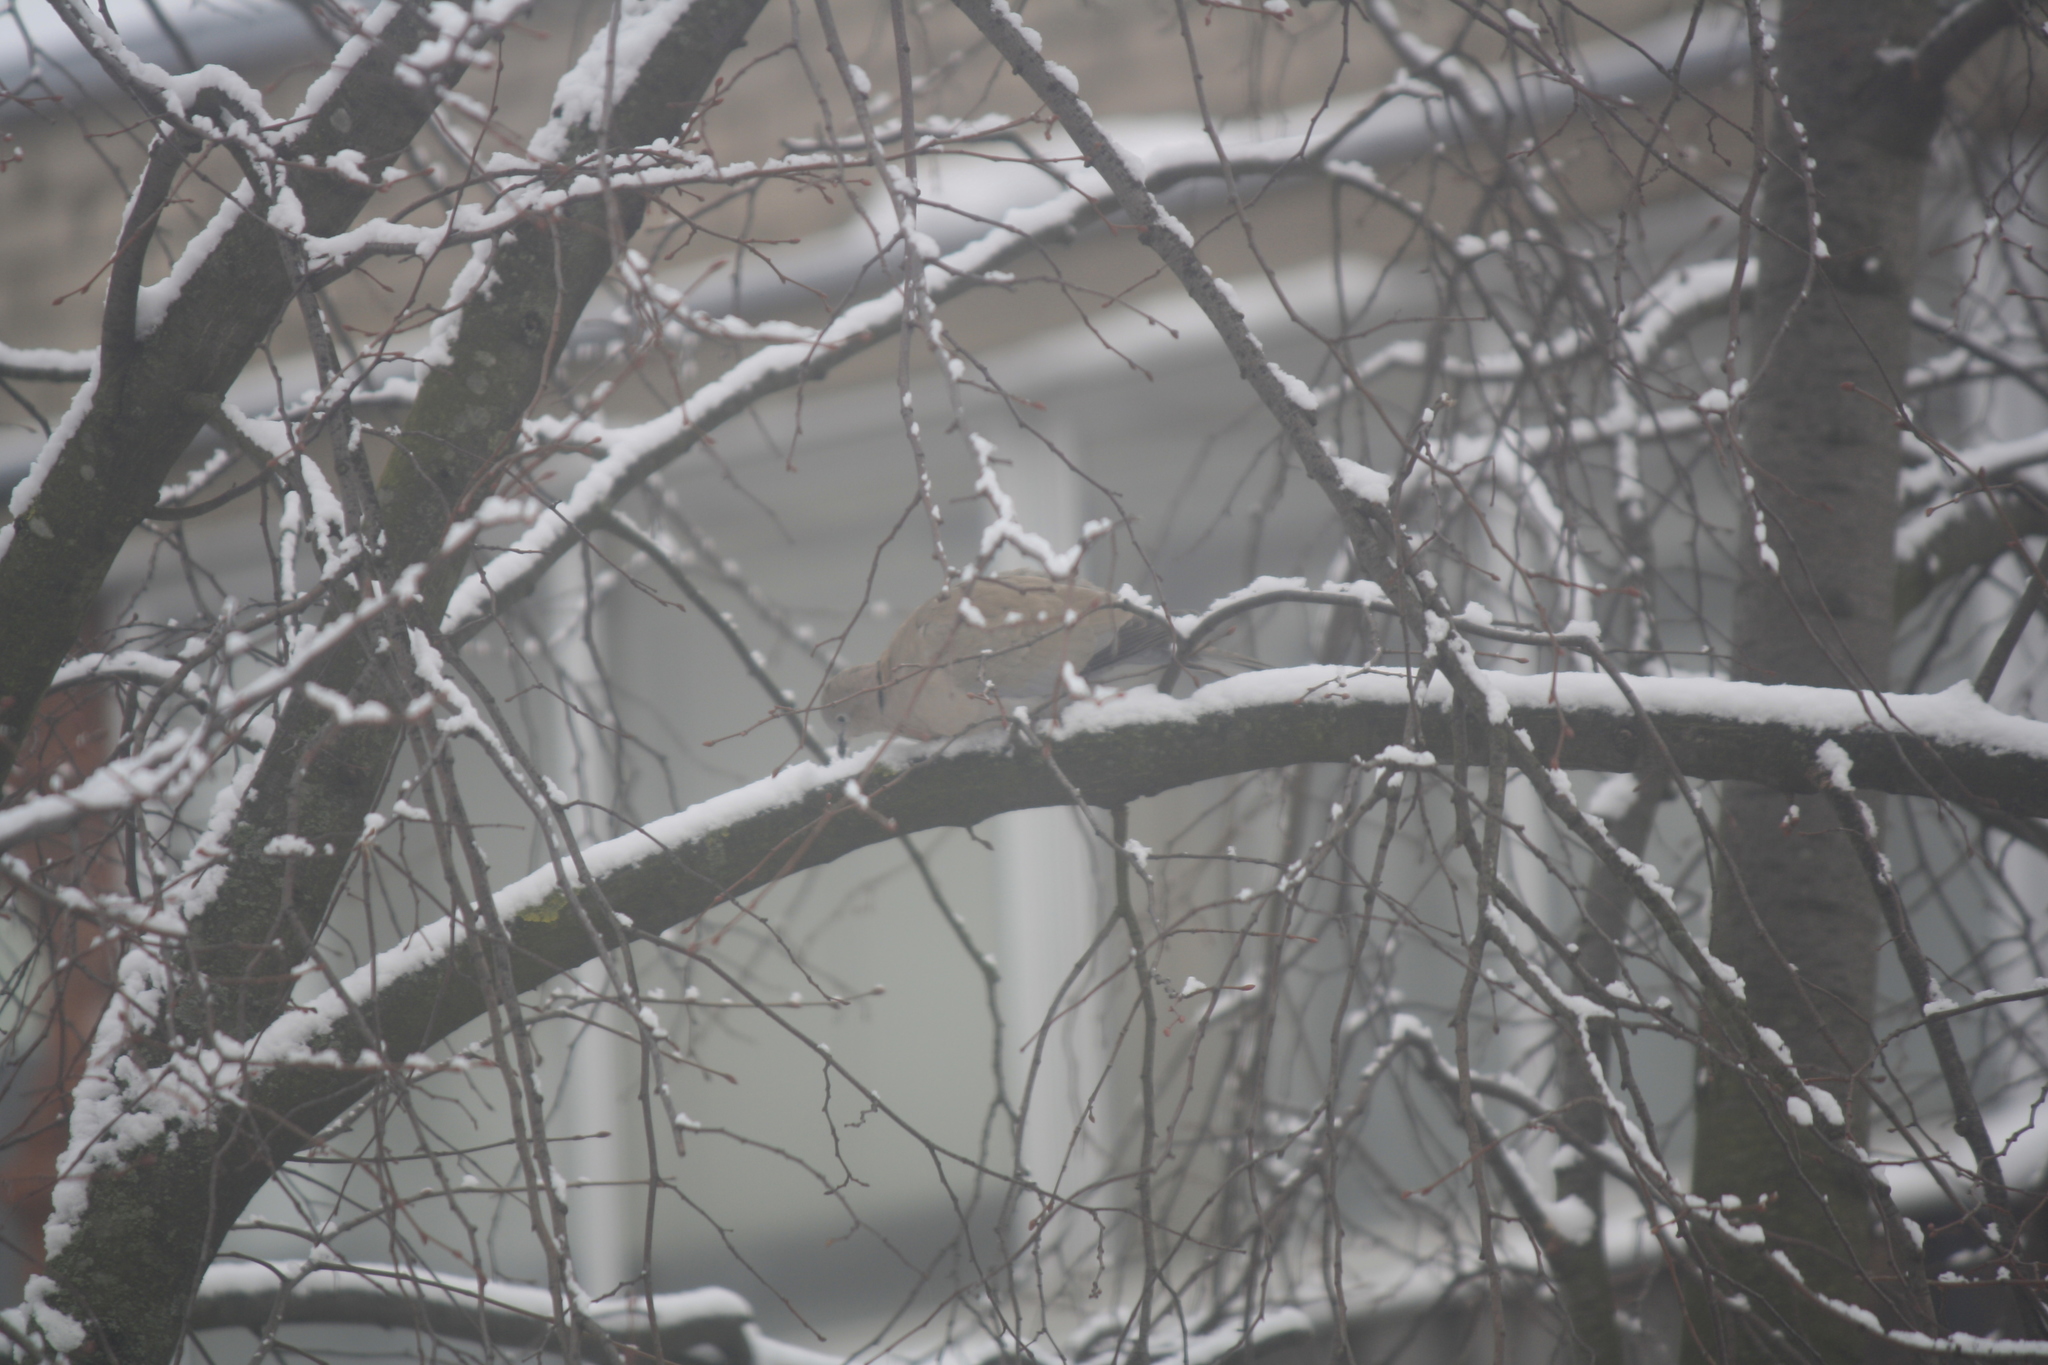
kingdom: Animalia
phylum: Chordata
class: Aves
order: Columbiformes
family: Columbidae
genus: Streptopelia
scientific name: Streptopelia decaocto
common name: Eurasian collared dove
